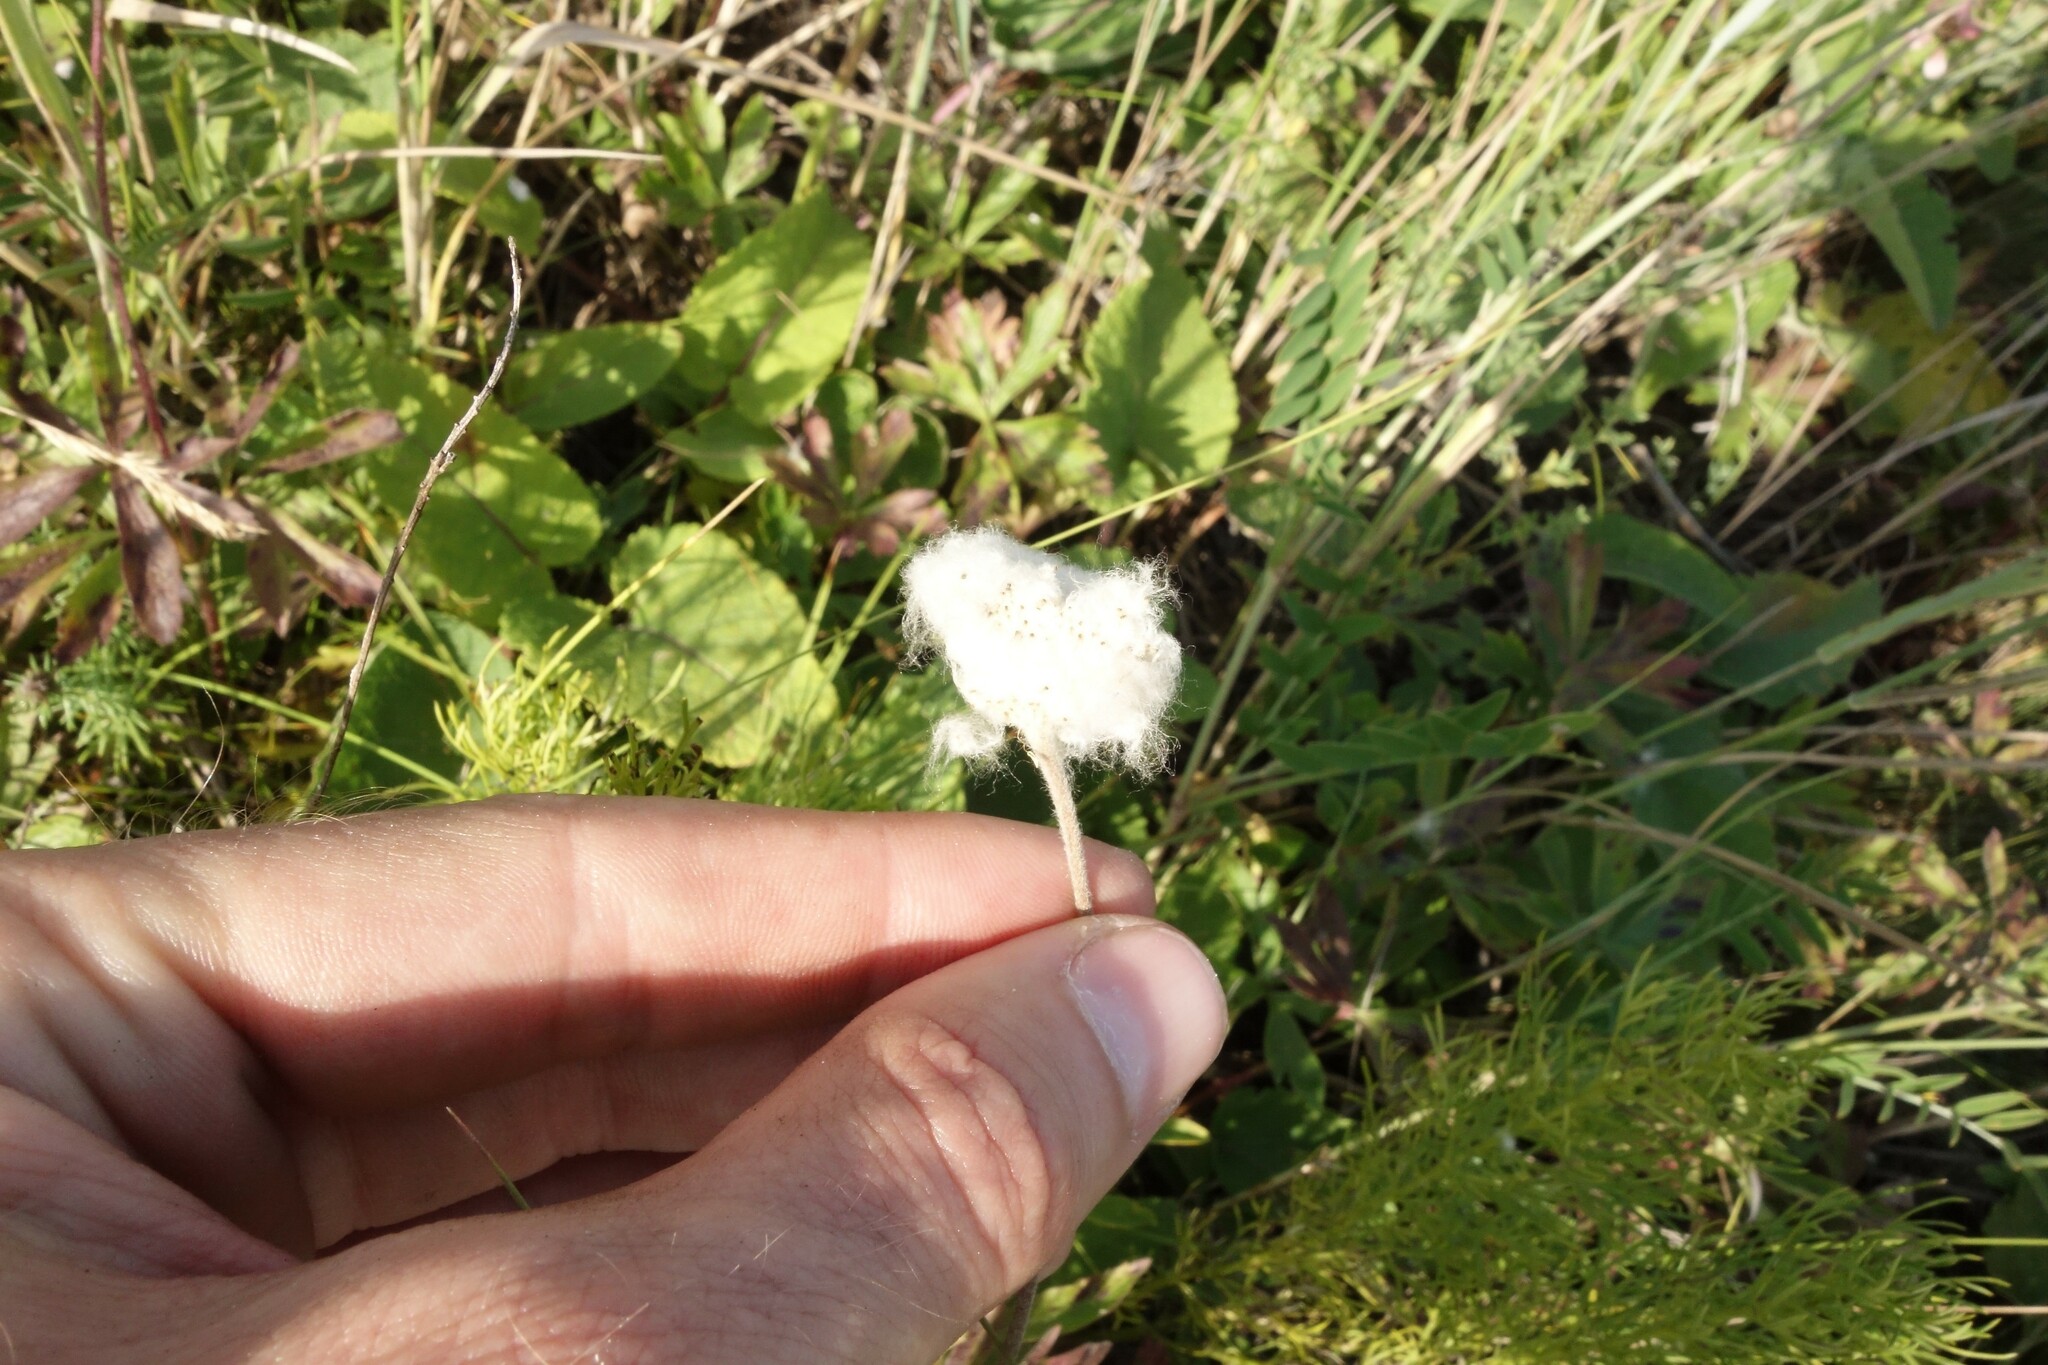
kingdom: Plantae
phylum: Tracheophyta
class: Magnoliopsida
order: Ranunculales
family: Ranunculaceae
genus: Anemone
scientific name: Anemone sylvestris
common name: Snowdrop anemone
